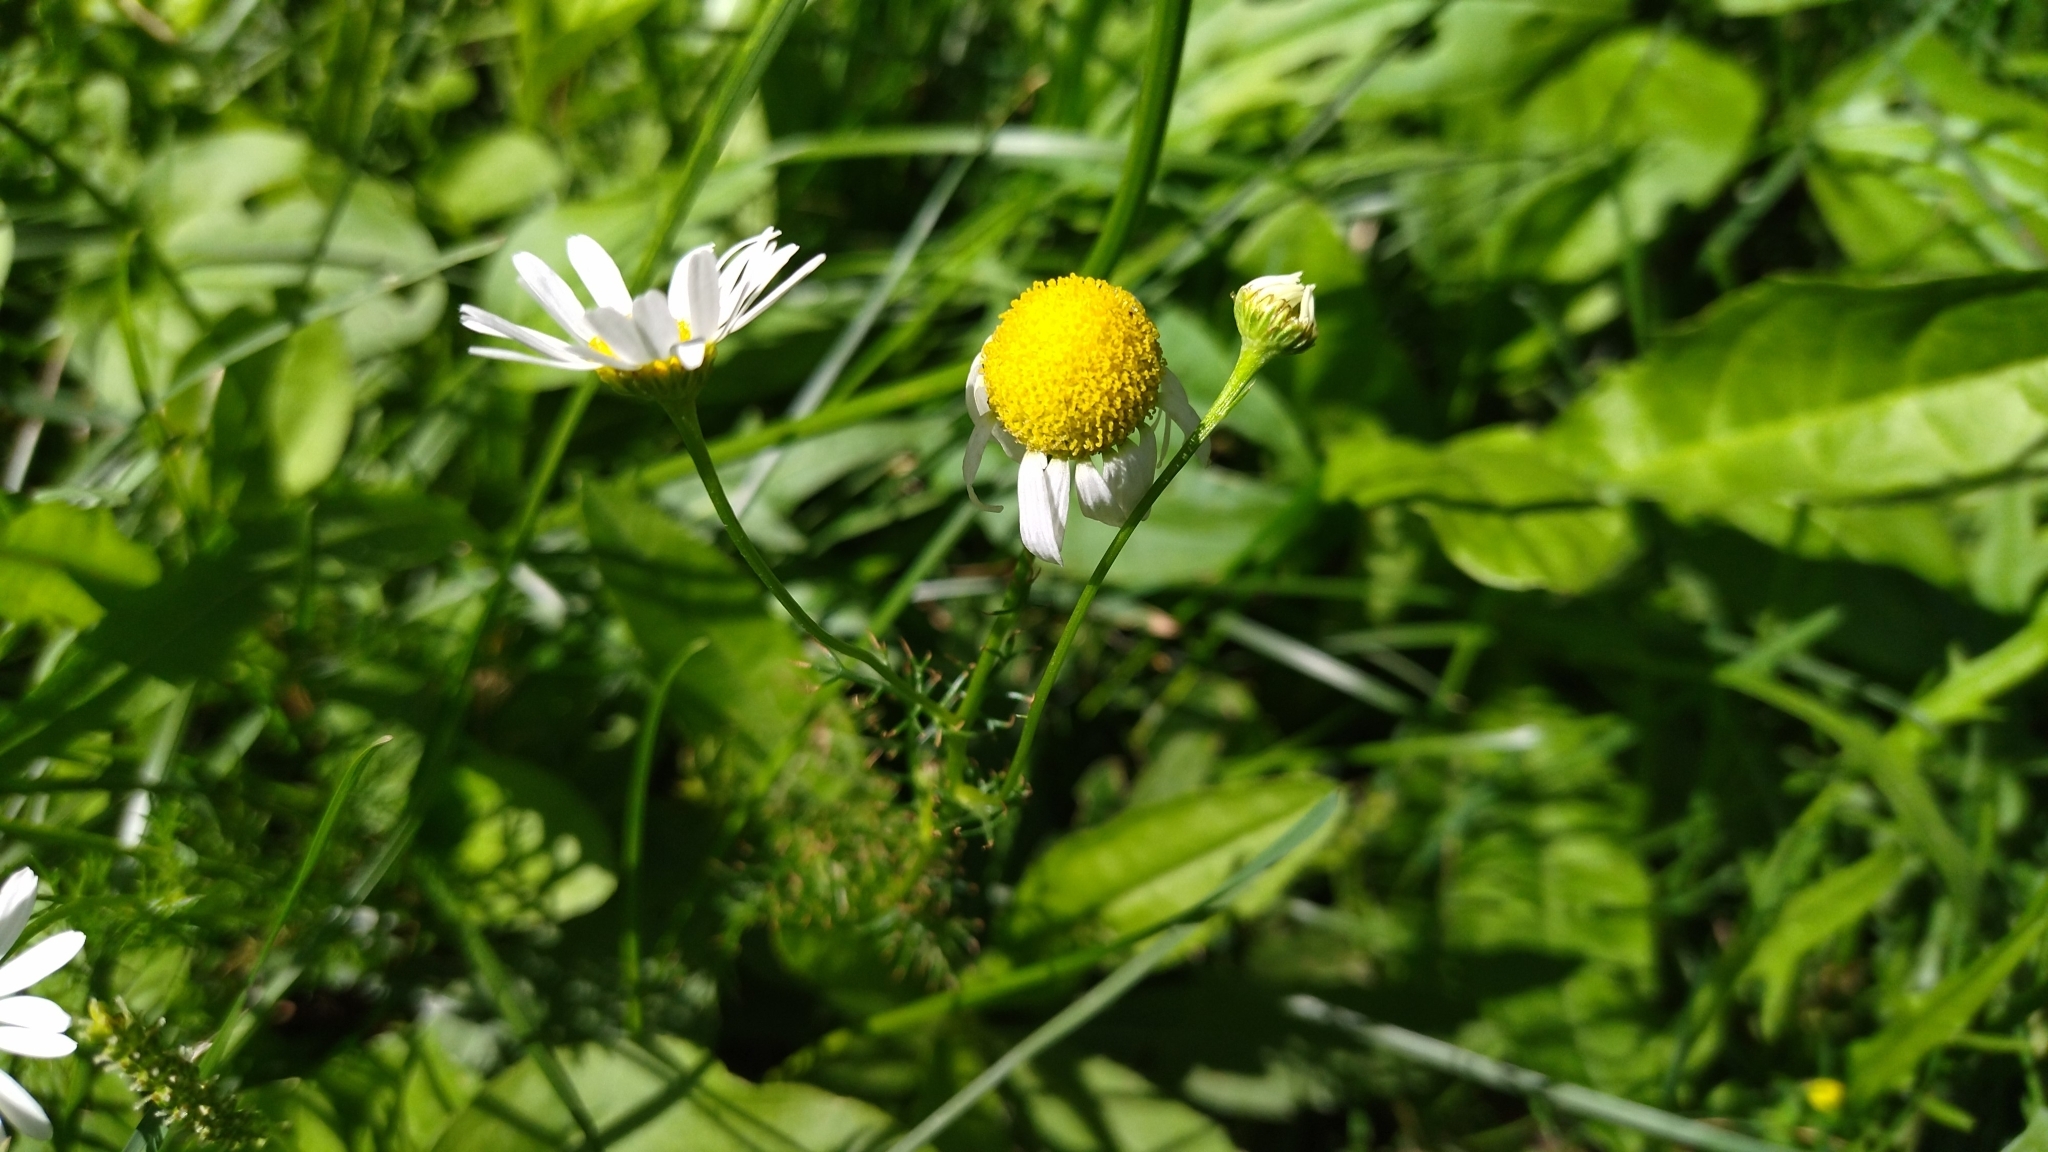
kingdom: Plantae
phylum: Tracheophyta
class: Magnoliopsida
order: Asterales
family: Asteraceae
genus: Tripleurospermum
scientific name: Tripleurospermum inodorum
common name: Scentless mayweed
